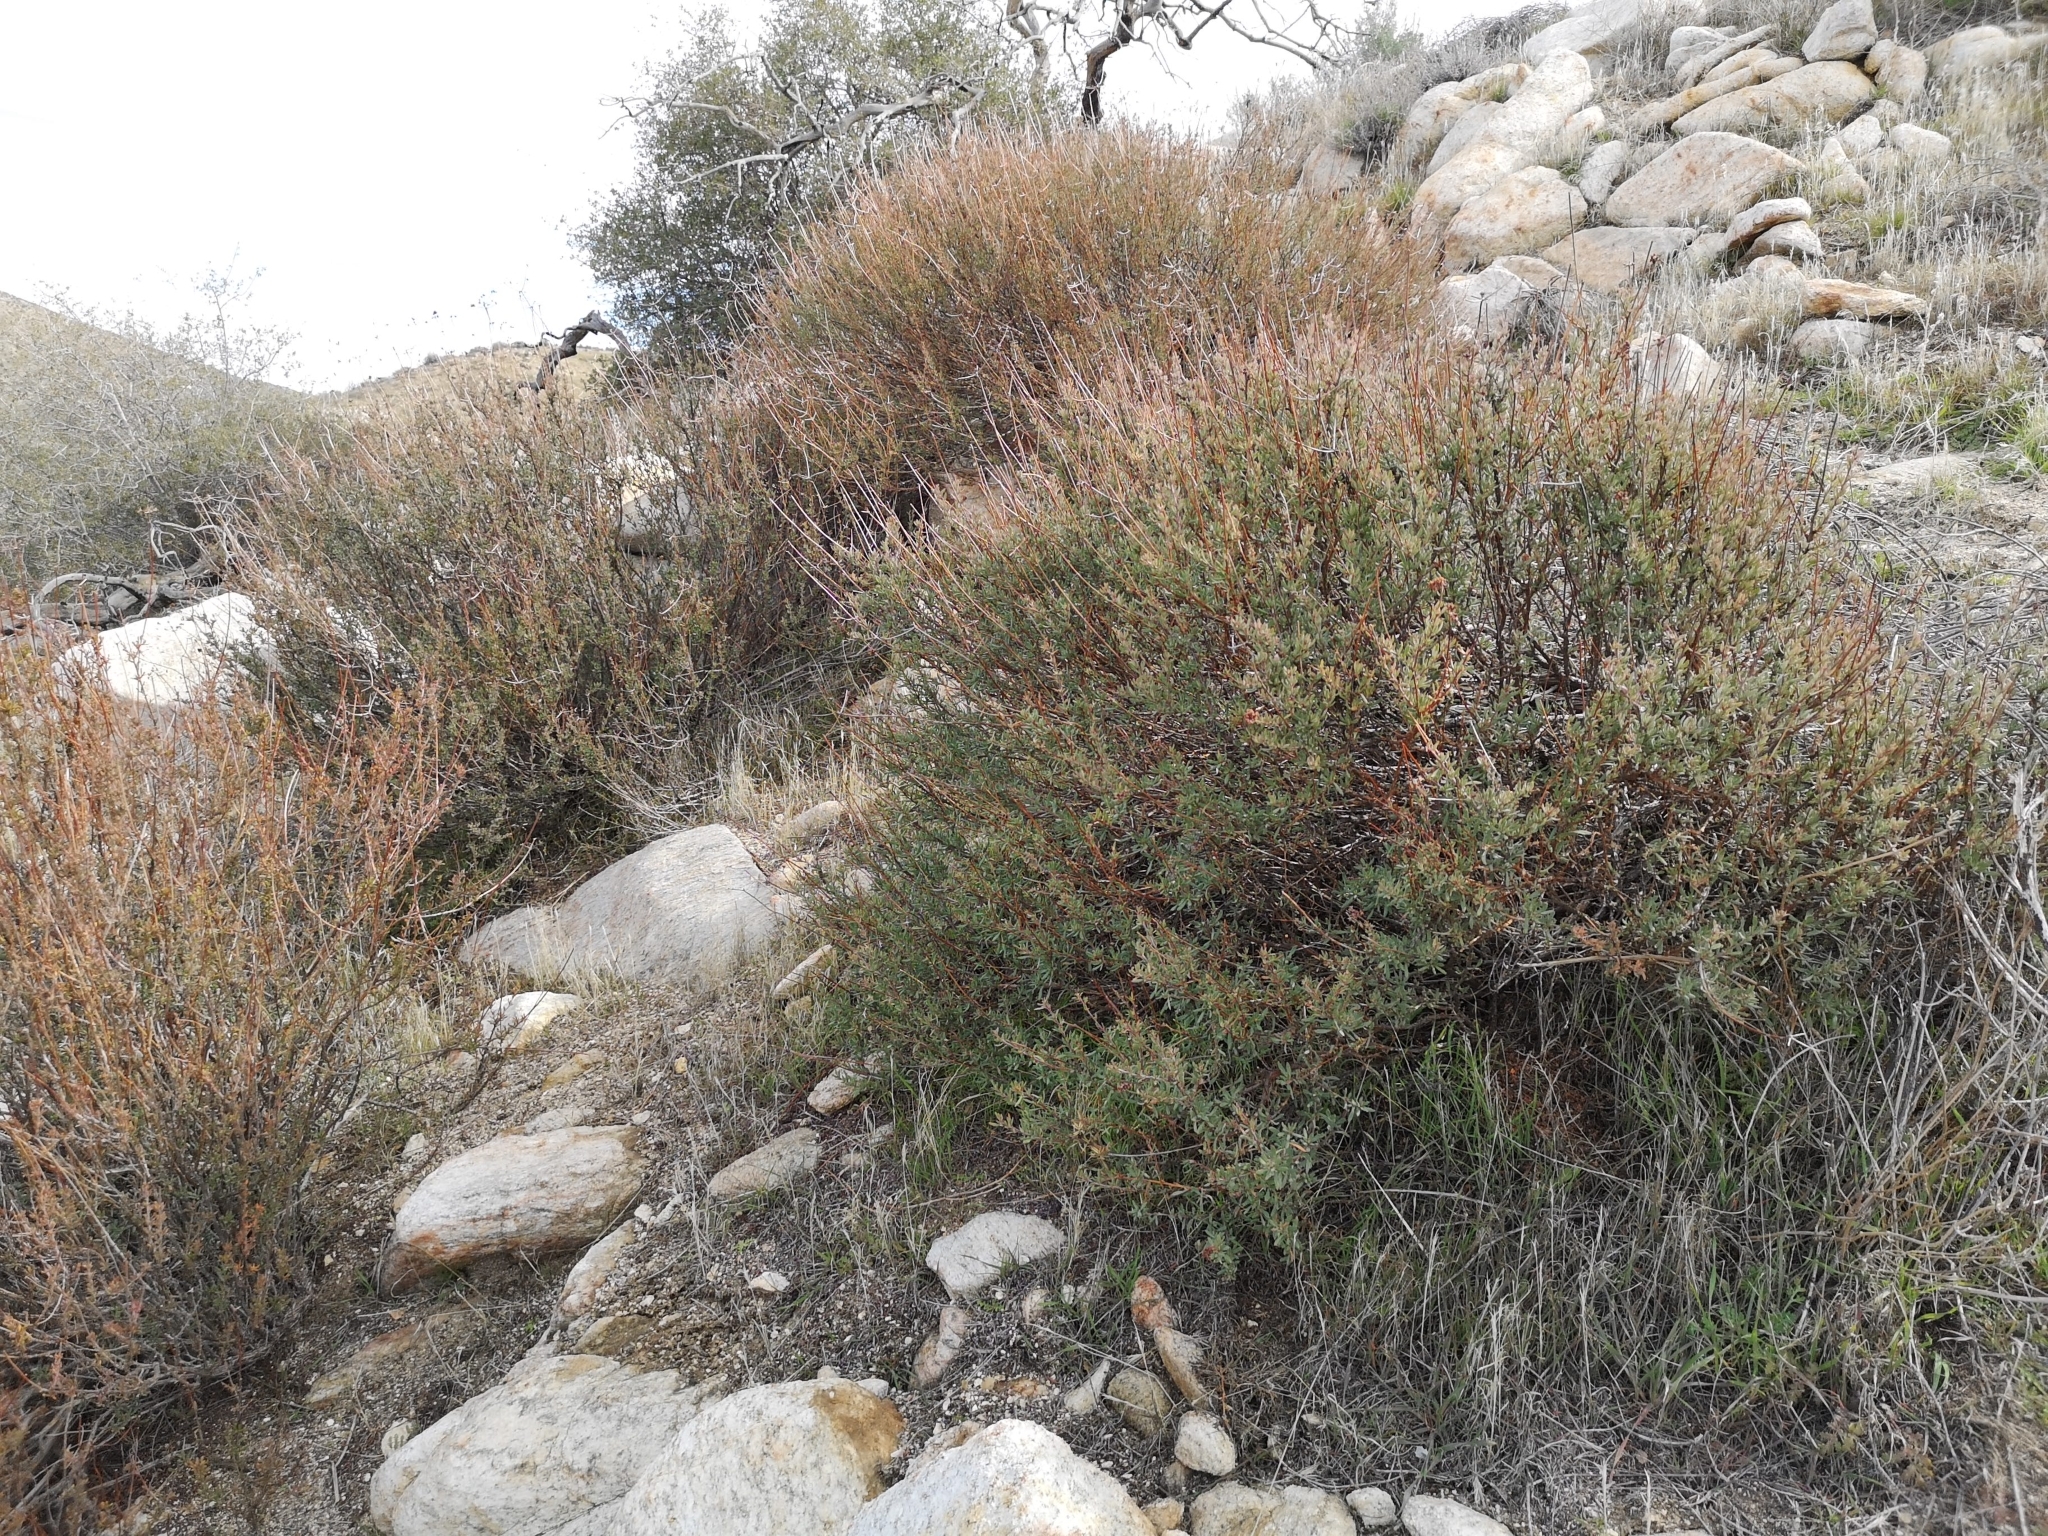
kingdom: Plantae
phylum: Tracheophyta
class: Magnoliopsida
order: Caryophyllales
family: Polygonaceae
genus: Eriogonum
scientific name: Eriogonum fasciculatum
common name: California wild buckwheat
